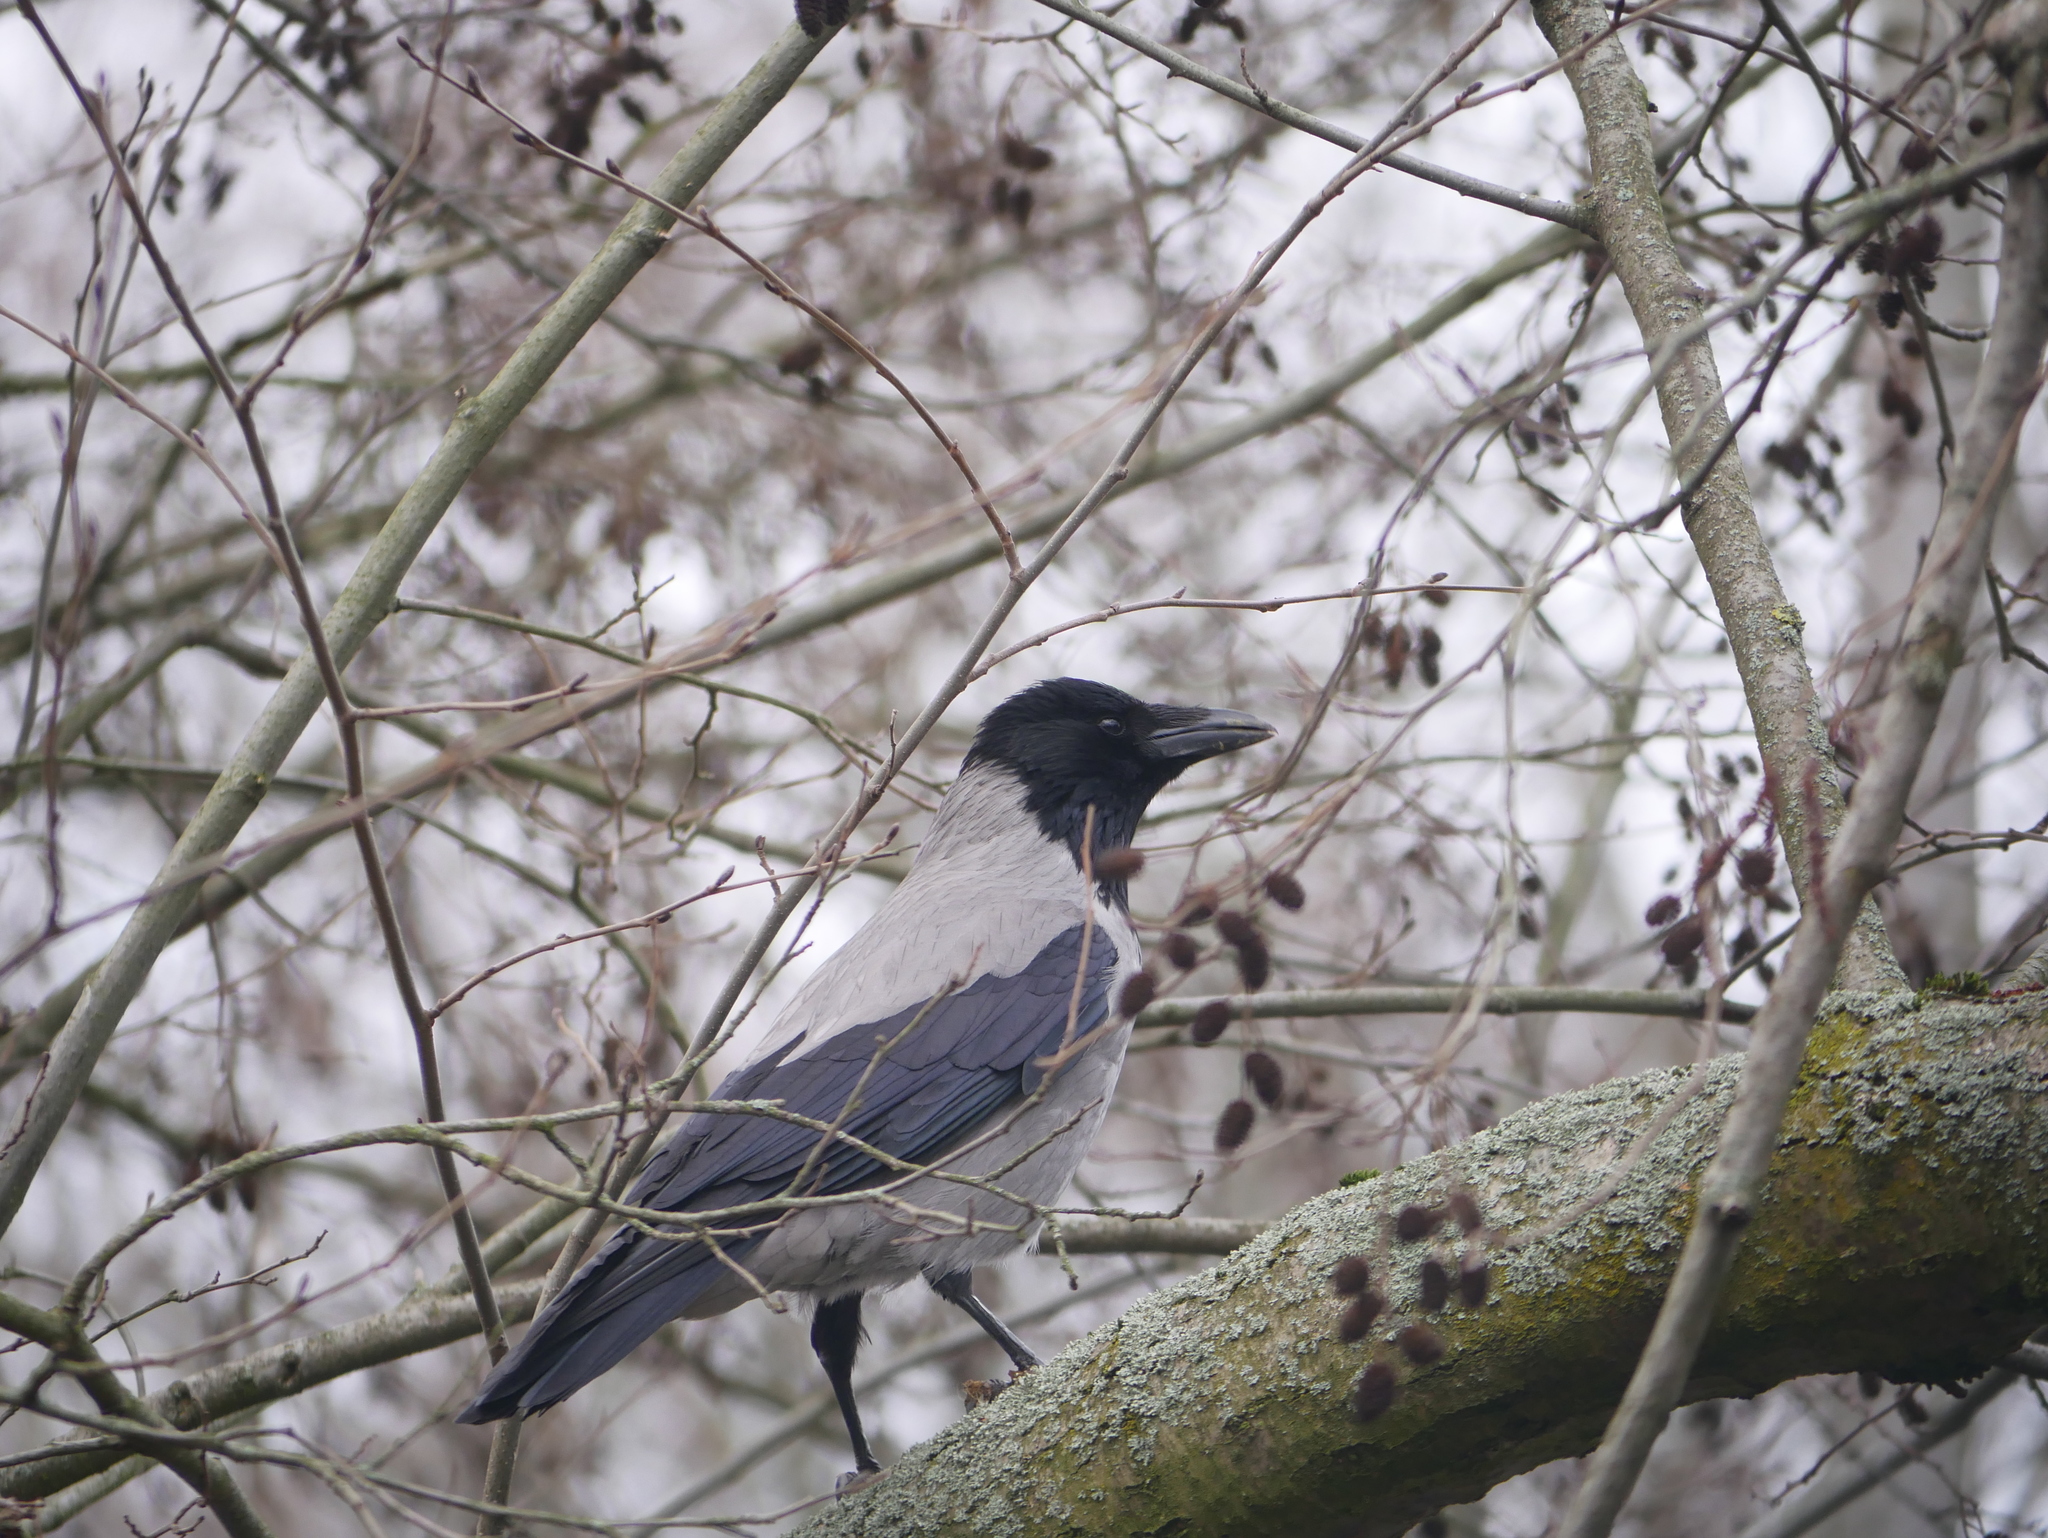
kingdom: Animalia
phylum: Chordata
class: Aves
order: Passeriformes
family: Corvidae
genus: Corvus
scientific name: Corvus cornix
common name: Hooded crow
